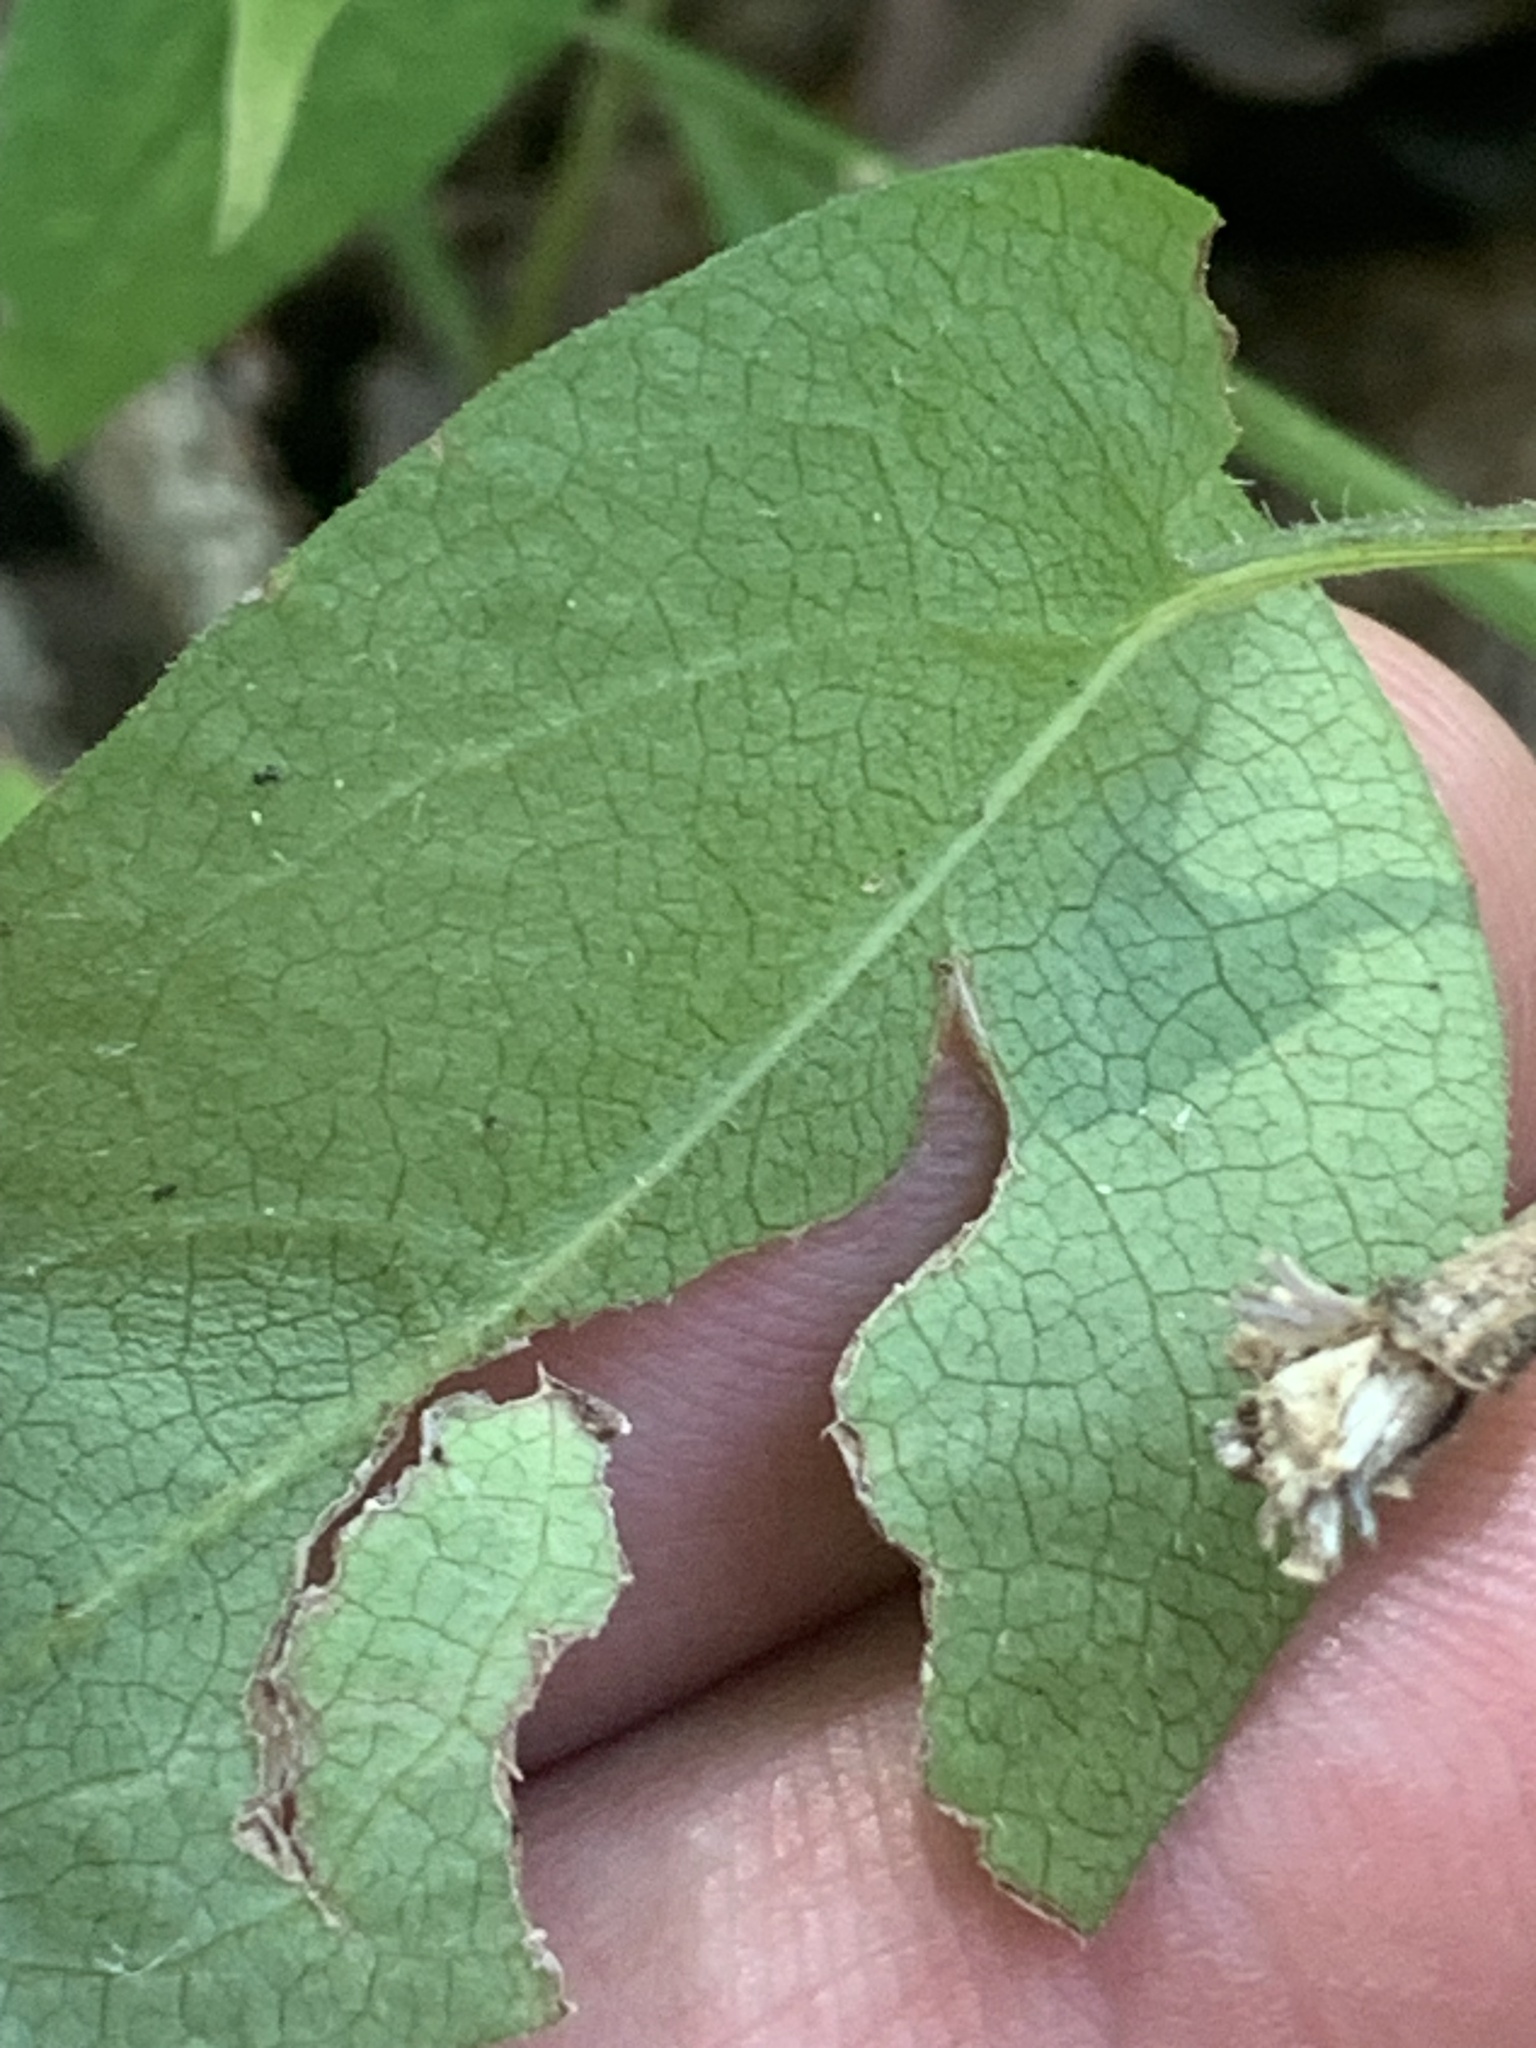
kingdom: Plantae
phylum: Tracheophyta
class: Magnoliopsida
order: Asterales
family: Asteraceae
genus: Symphyotrichum
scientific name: Symphyotrichum shortii
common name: Short's aster
